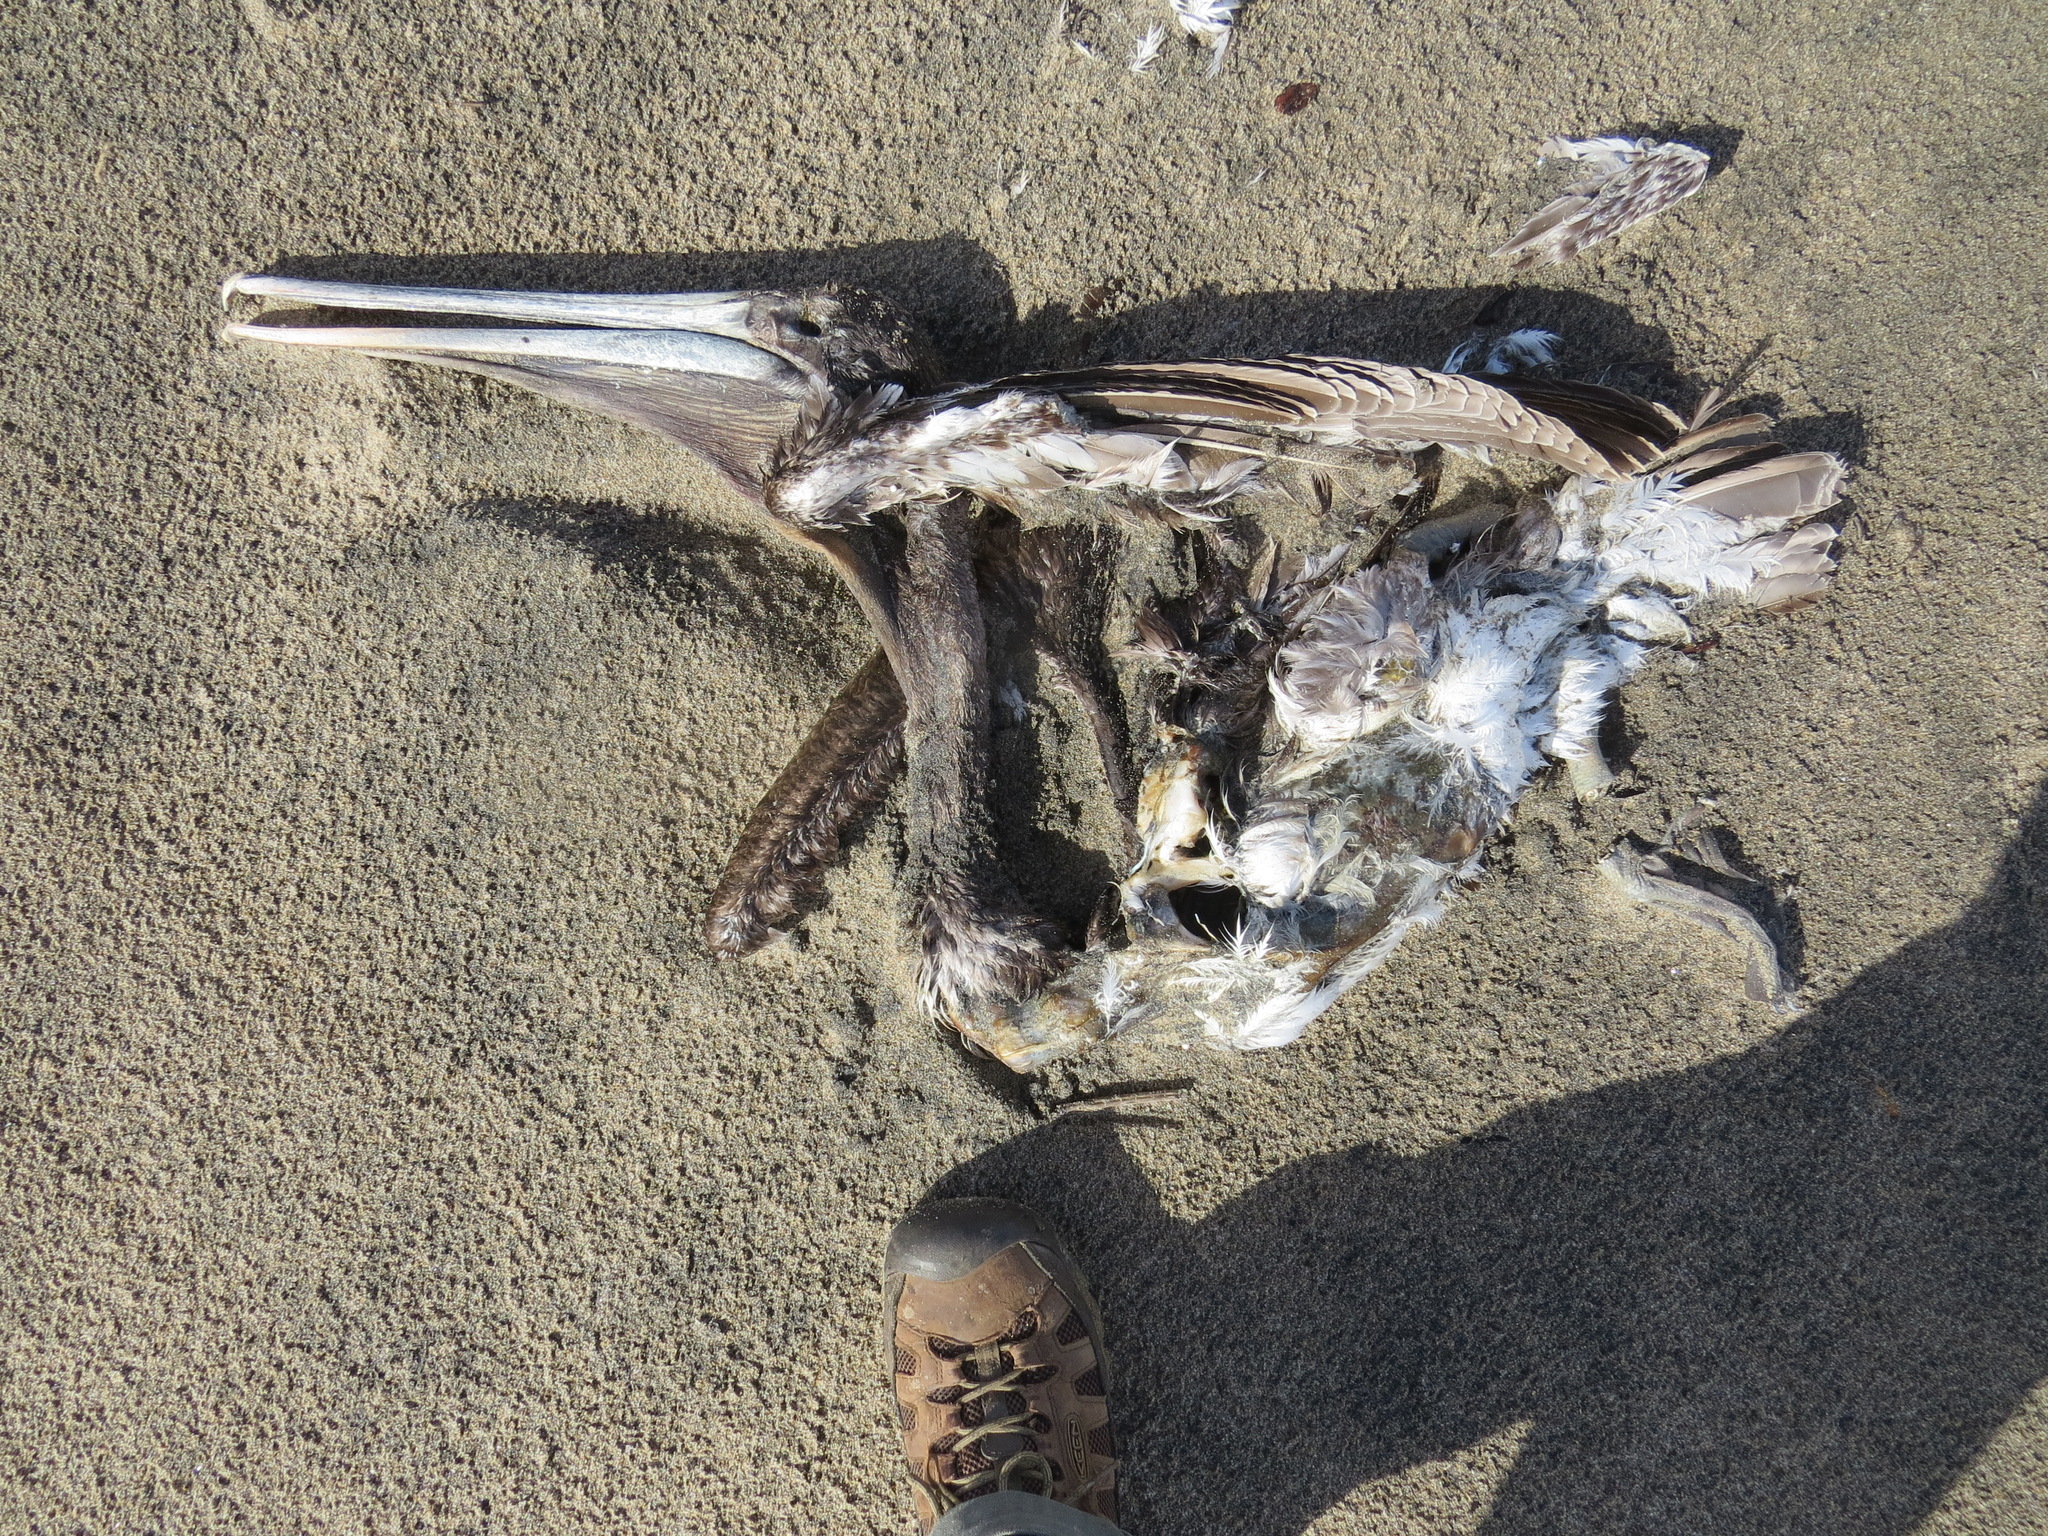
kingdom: Animalia
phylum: Chordata
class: Aves
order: Pelecaniformes
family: Pelecanidae
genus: Pelecanus
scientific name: Pelecanus occidentalis
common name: Brown pelican
